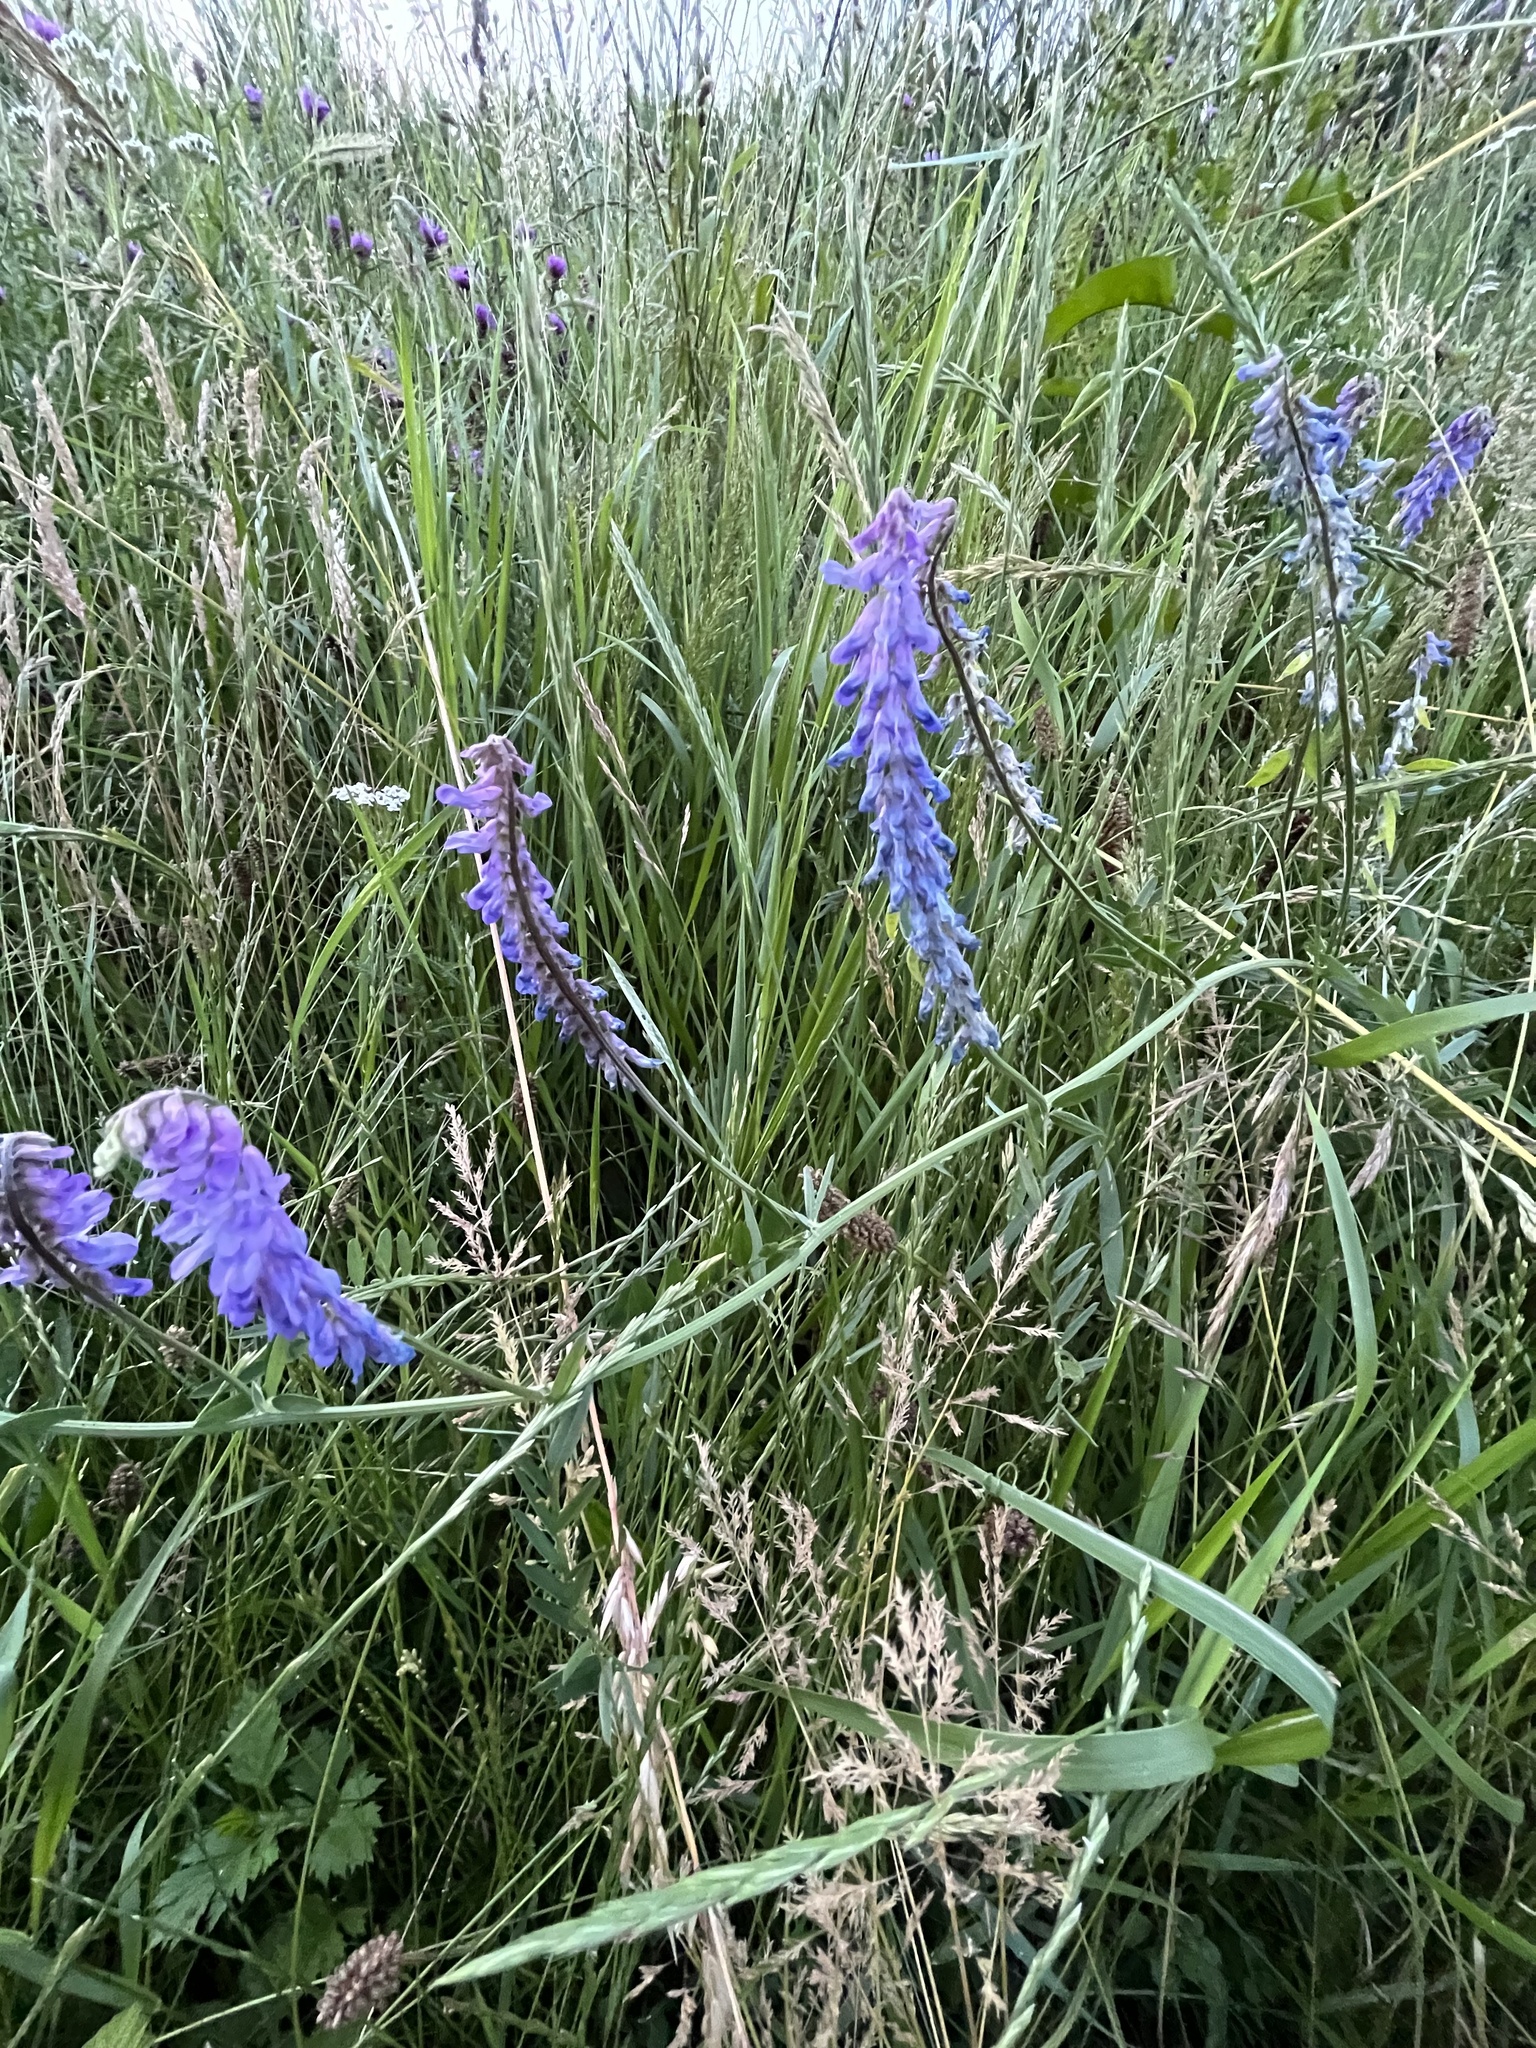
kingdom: Plantae
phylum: Tracheophyta
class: Magnoliopsida
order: Fabales
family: Fabaceae
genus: Vicia
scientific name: Vicia cracca
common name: Bird vetch
